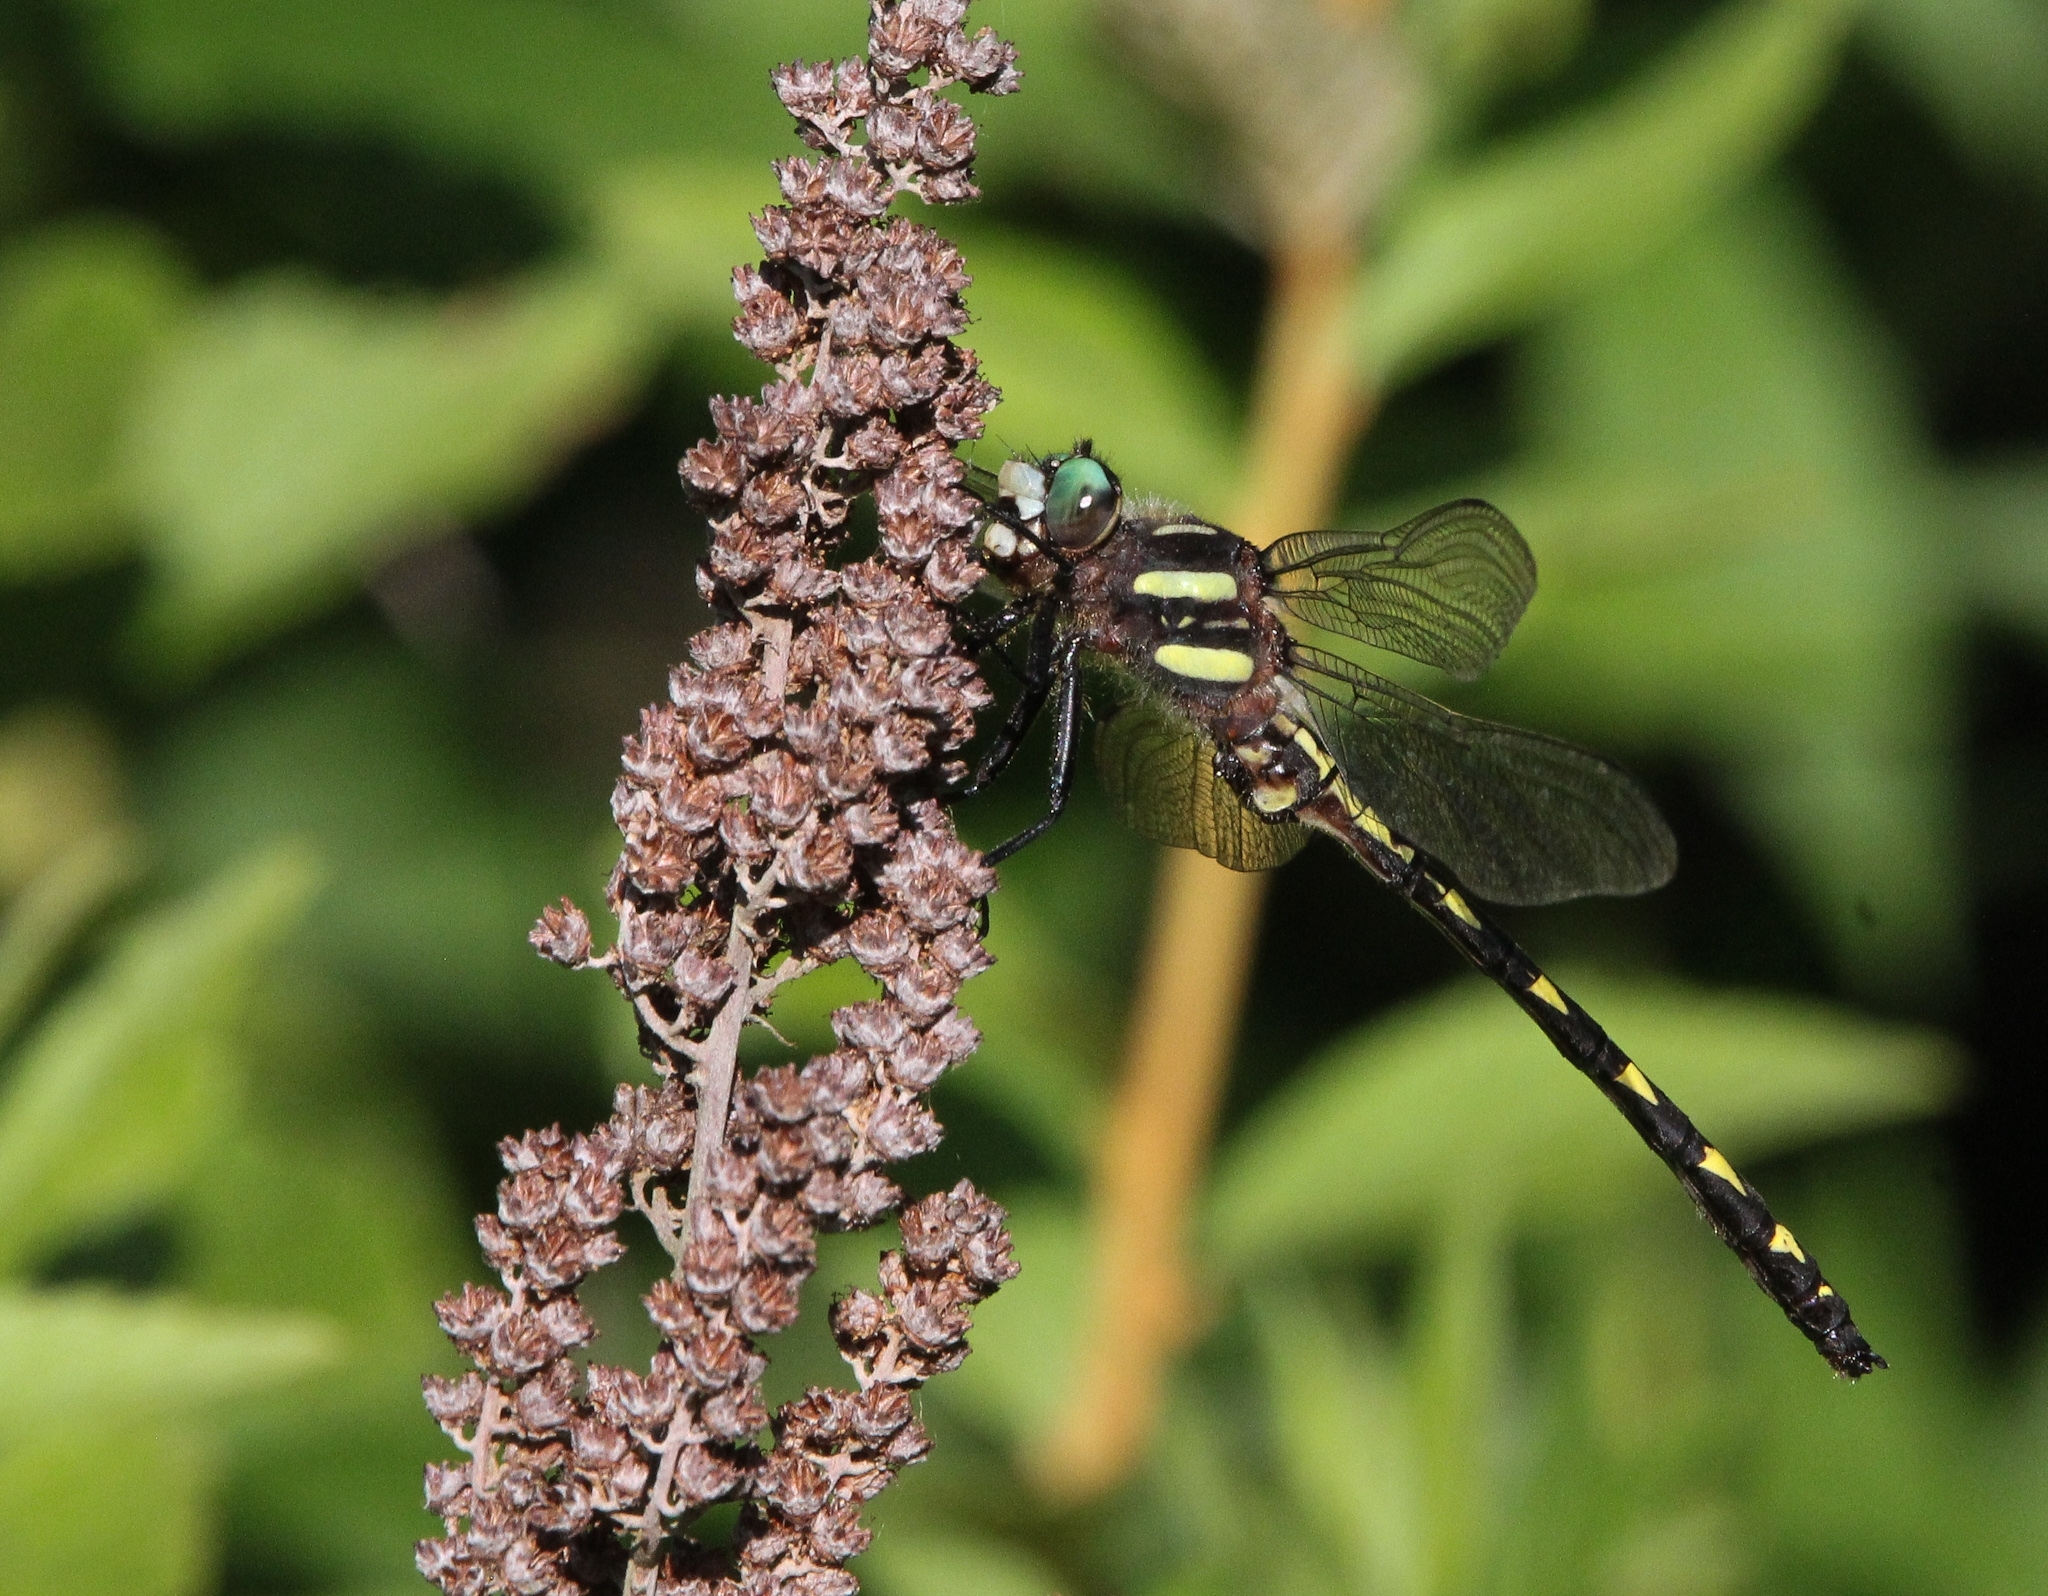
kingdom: Animalia
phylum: Arthropoda
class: Insecta
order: Odonata
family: Cordulegastridae
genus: Cordulegaster
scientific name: Cordulegaster diastatops
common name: Delta-spotted spiketail
